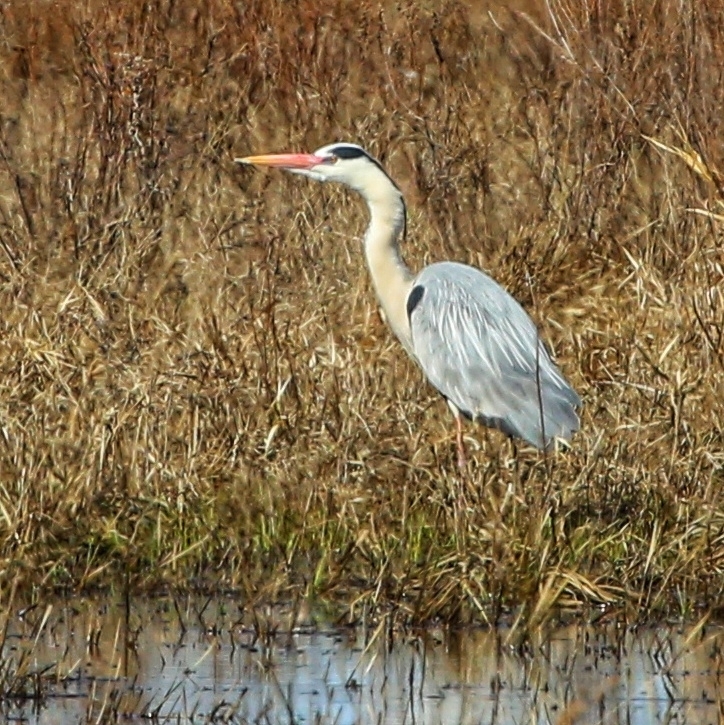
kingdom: Animalia
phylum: Chordata
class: Aves
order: Pelecaniformes
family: Ardeidae
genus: Ardea
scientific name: Ardea cinerea
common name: Grey heron
